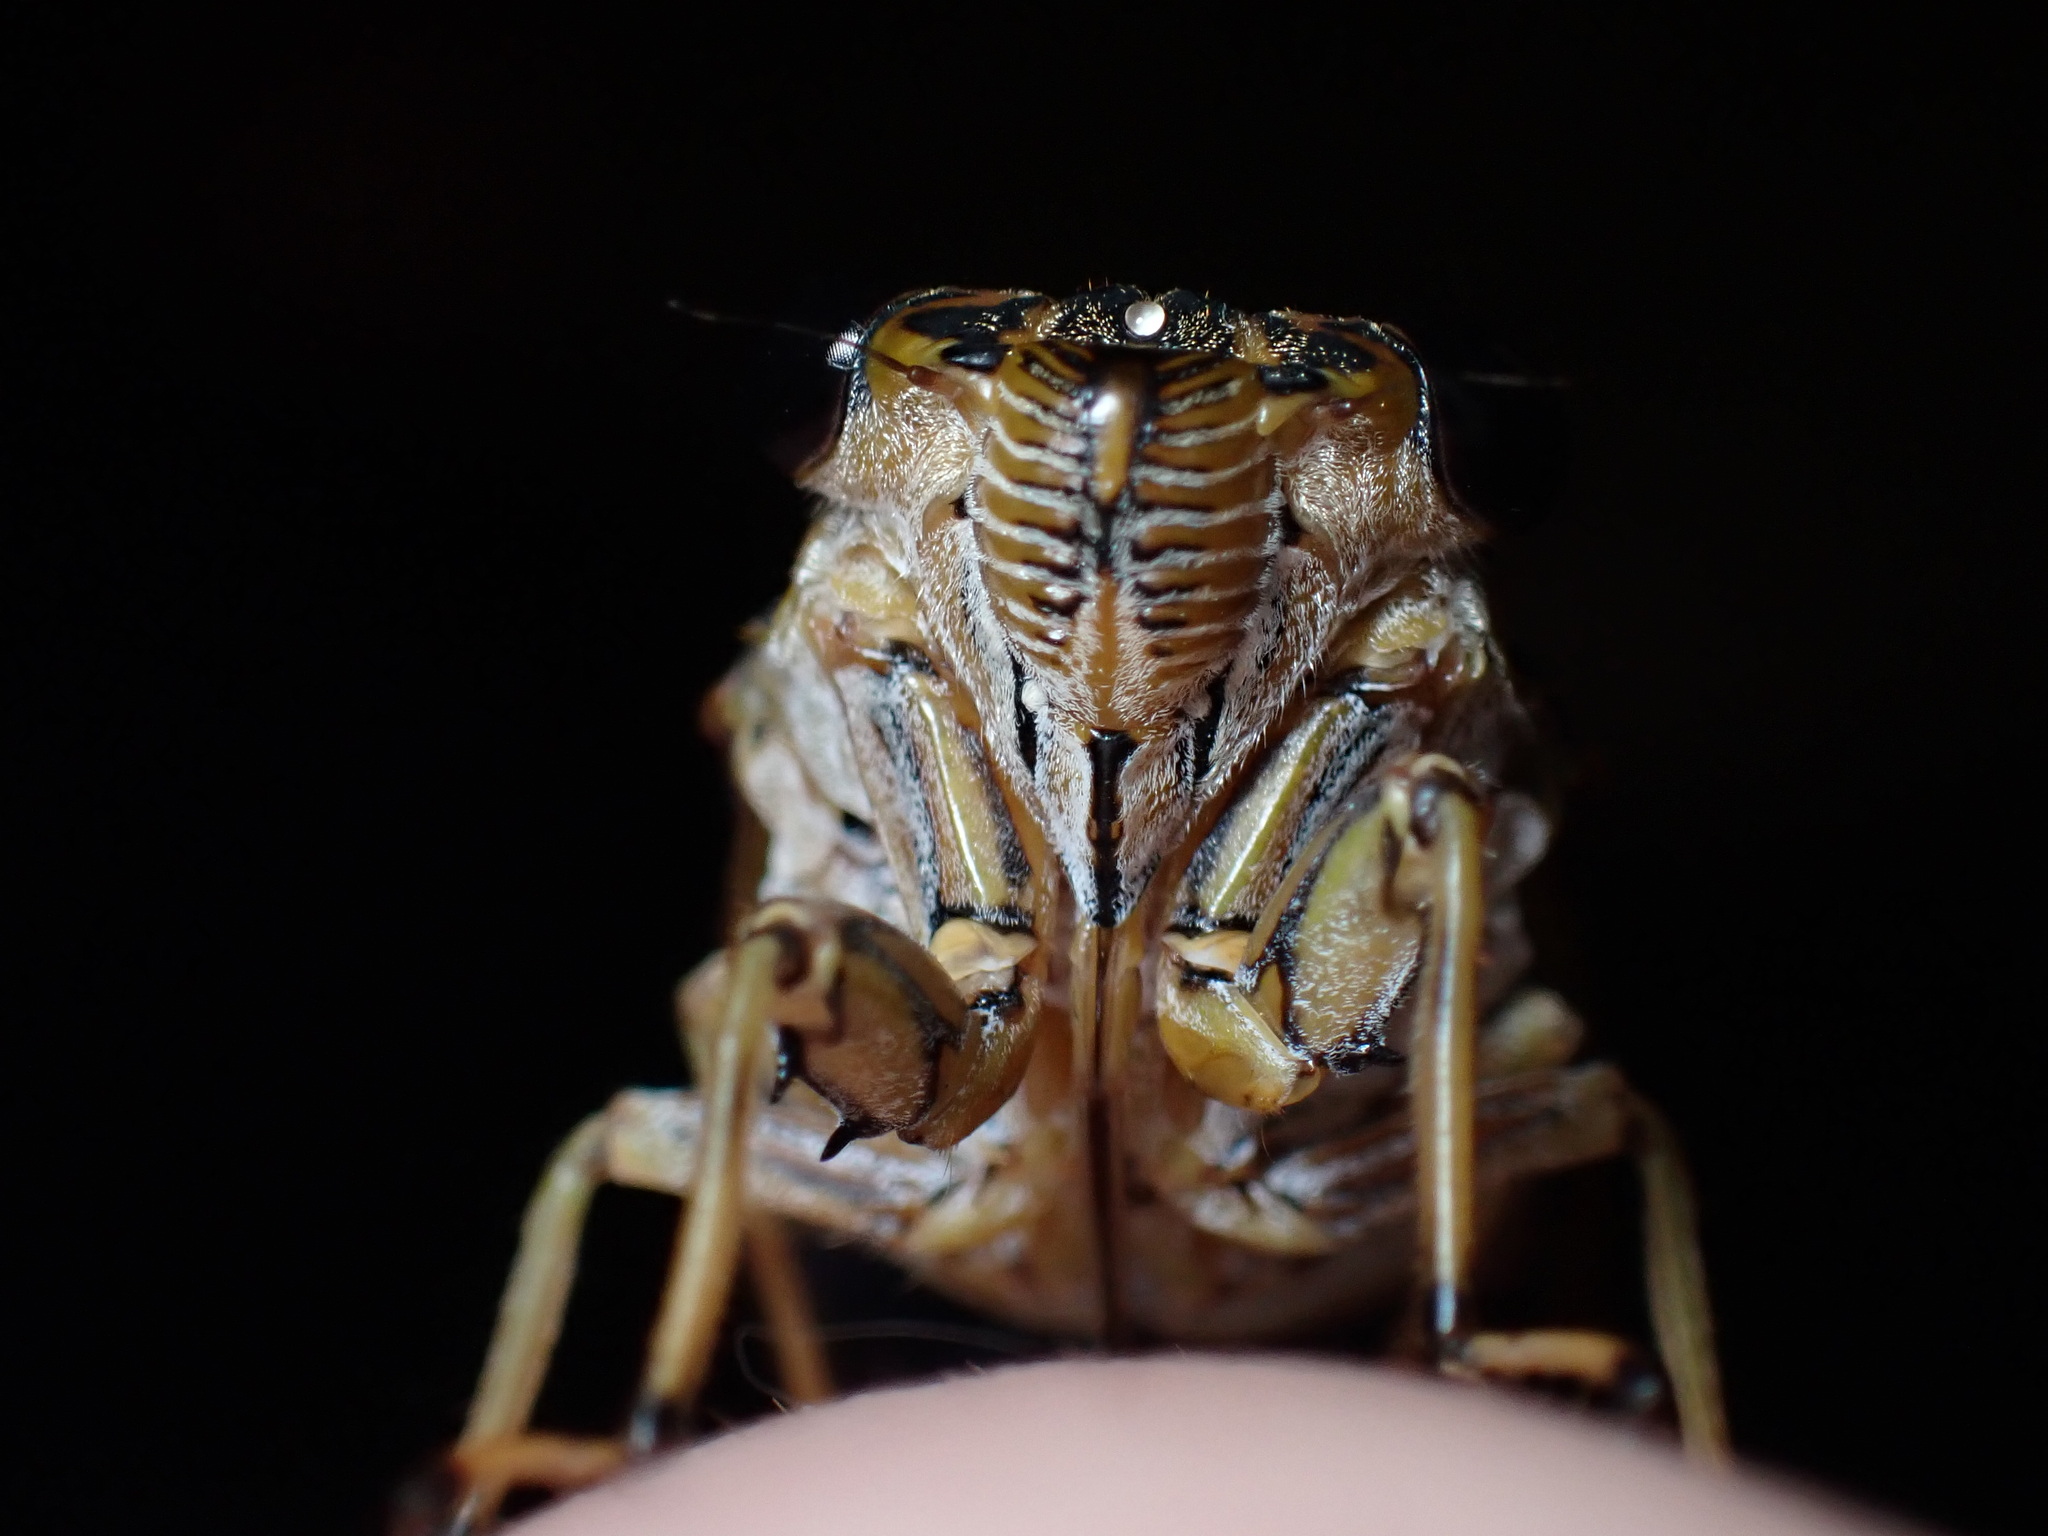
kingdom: Animalia
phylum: Arthropoda
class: Insecta
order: Hemiptera
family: Cicadidae
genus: Tamasa
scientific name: Tamasa tristigma
